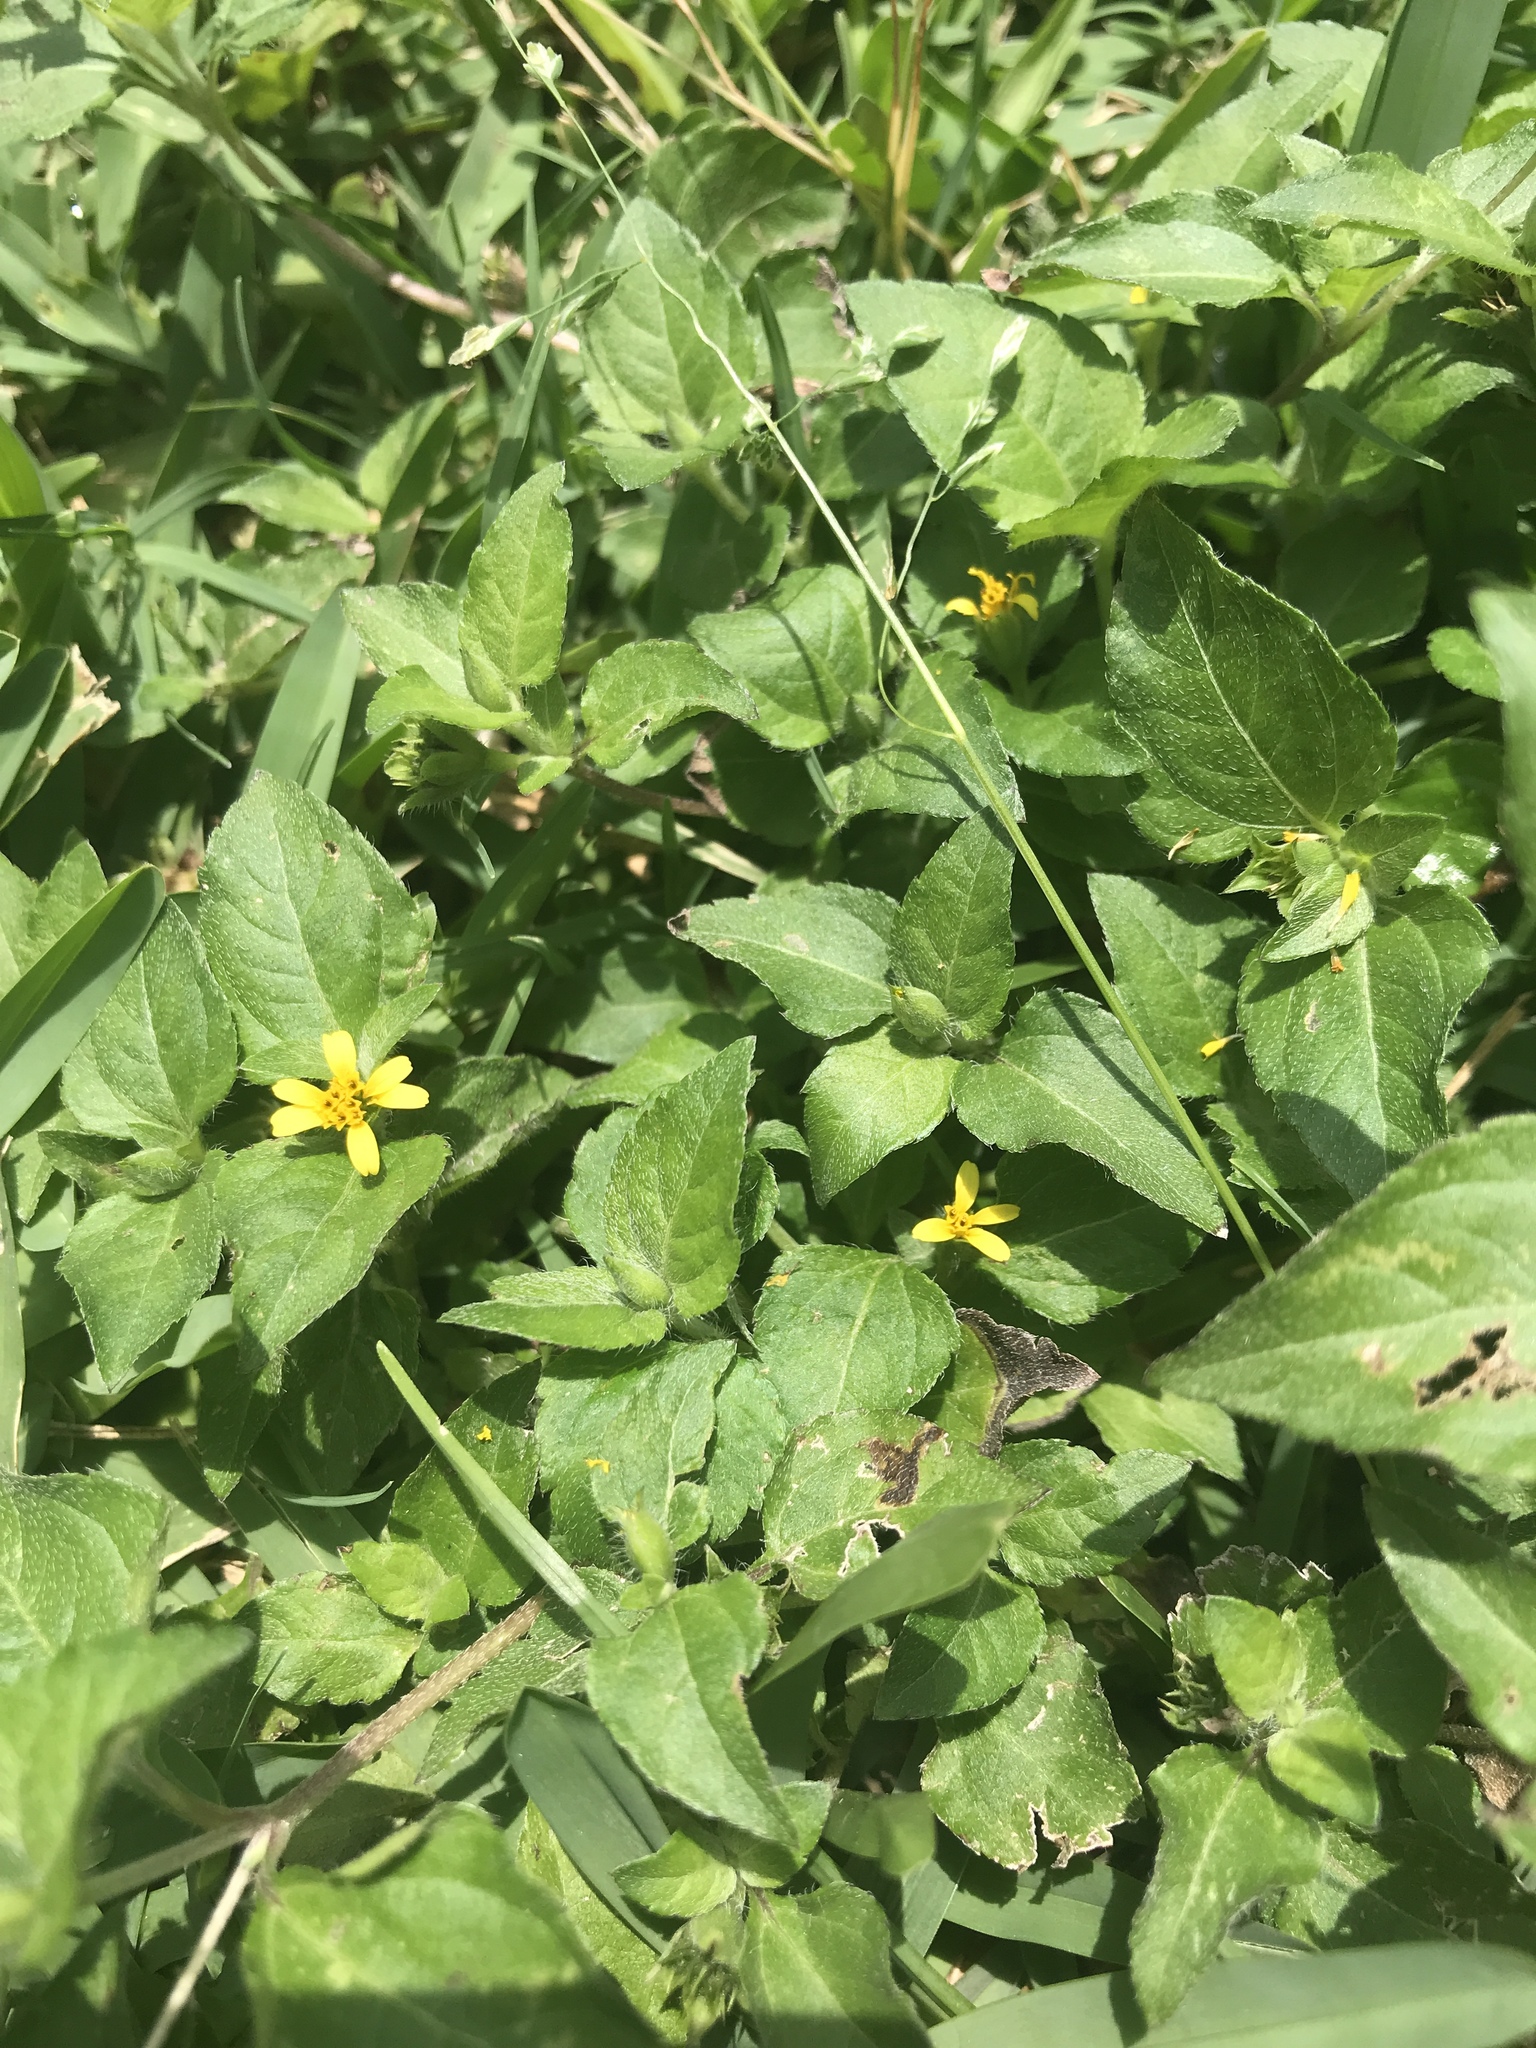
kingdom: Plantae
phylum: Tracheophyta
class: Magnoliopsida
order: Asterales
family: Asteraceae
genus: Calyptocarpus
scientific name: Calyptocarpus vialis
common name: Straggler daisy
